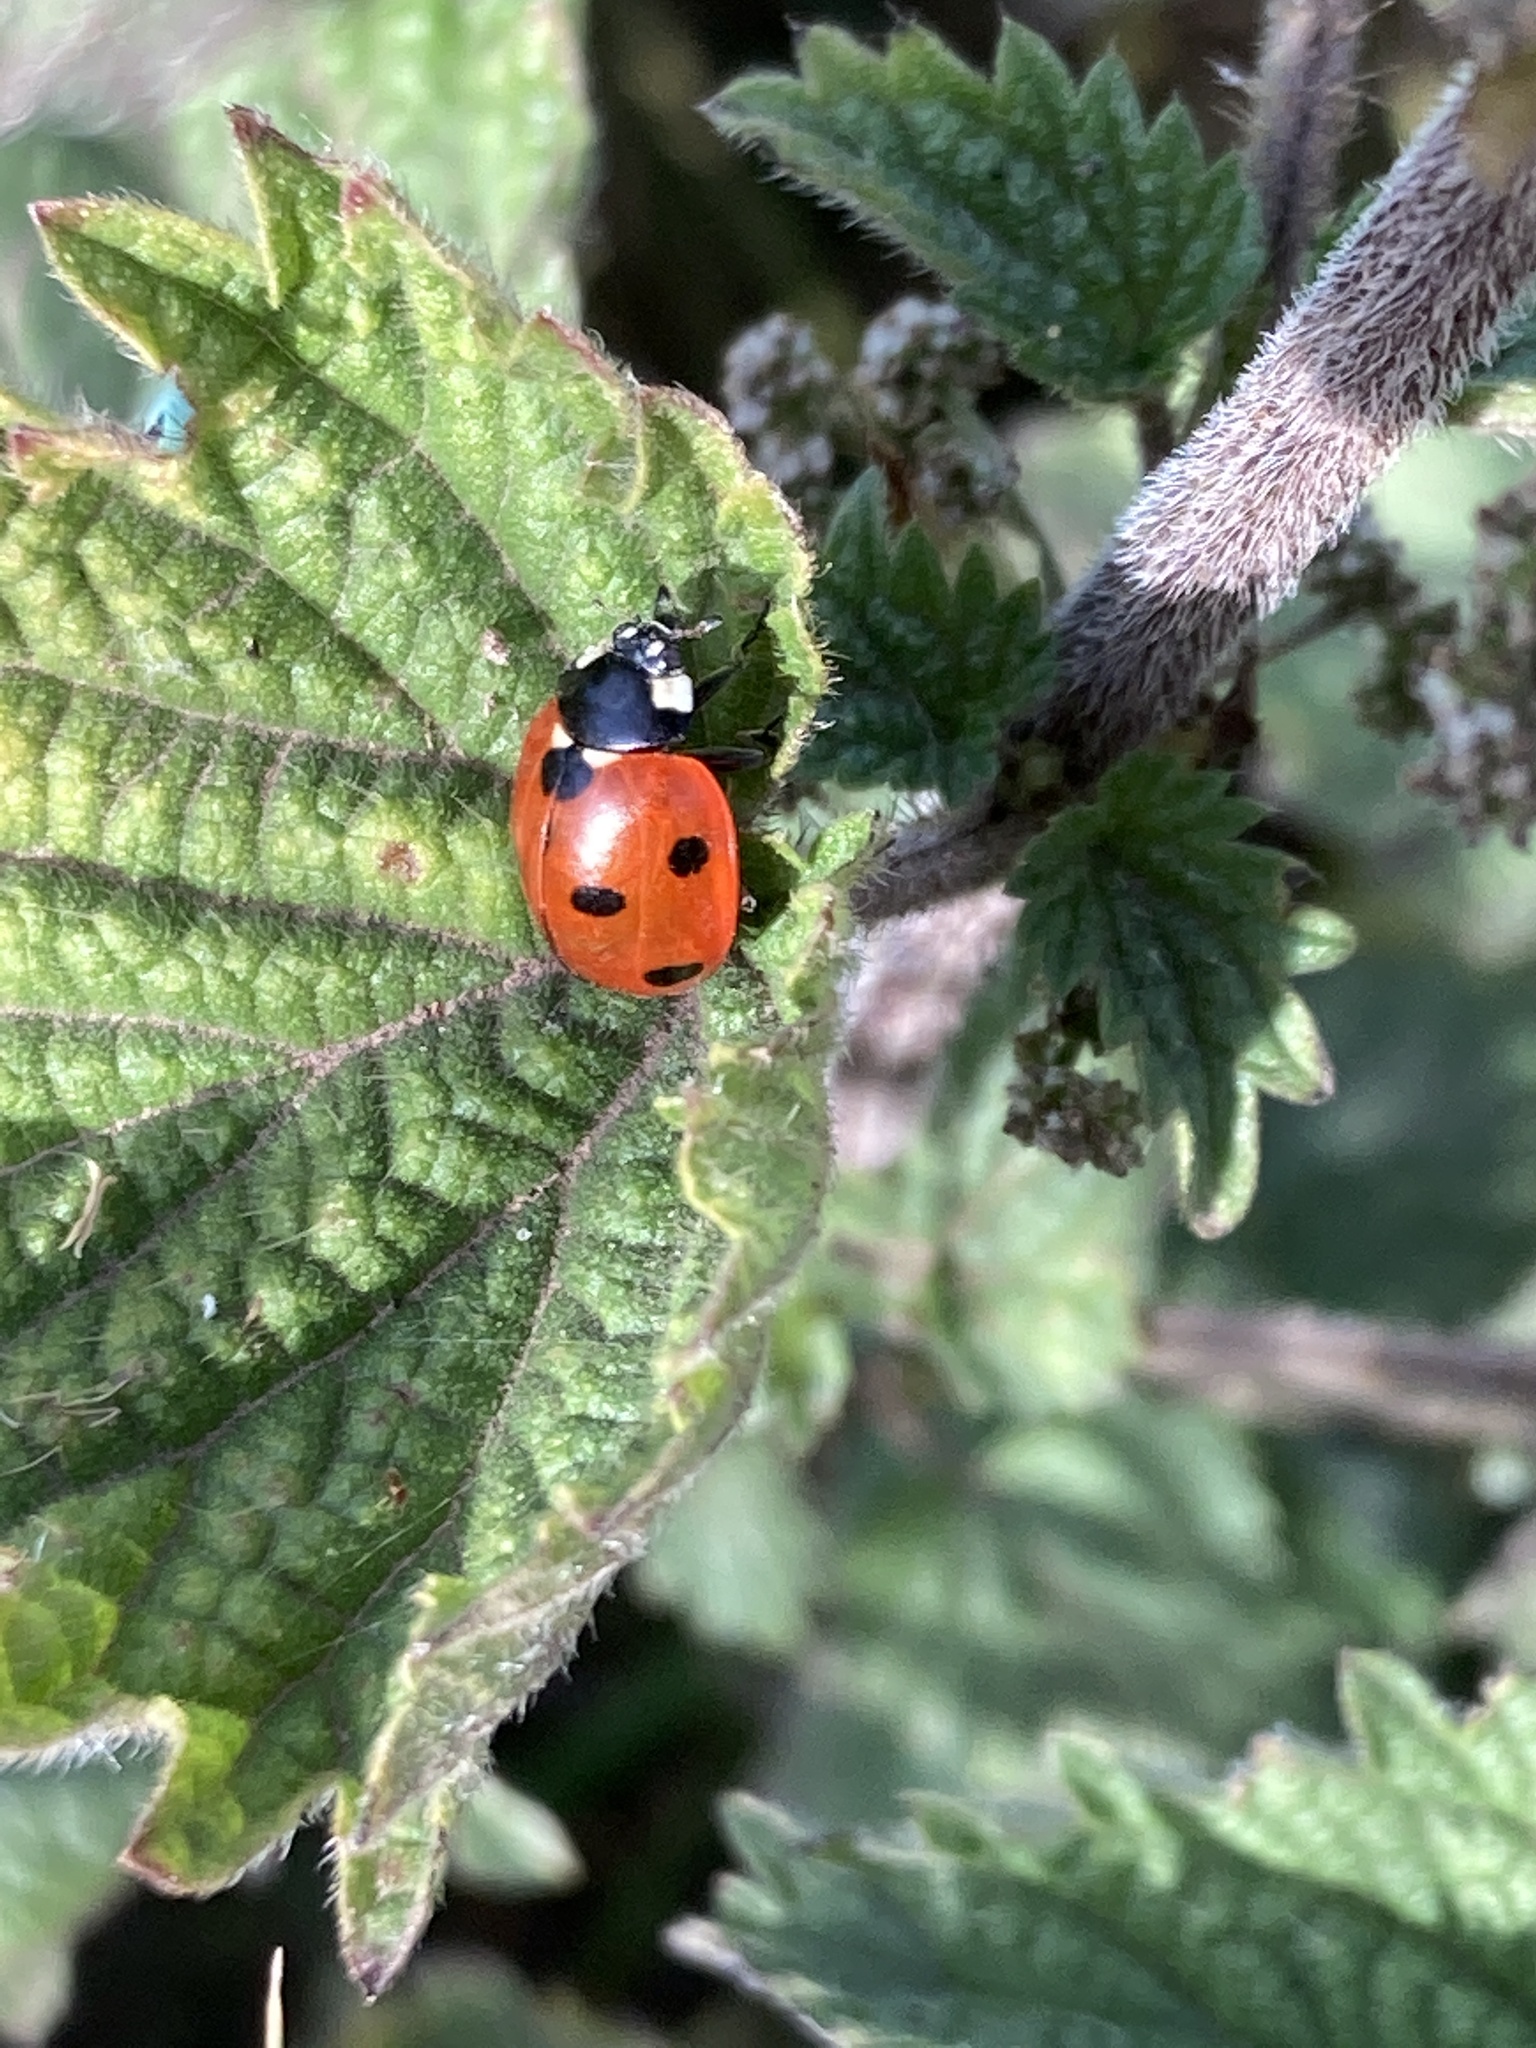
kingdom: Animalia
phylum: Arthropoda
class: Insecta
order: Coleoptera
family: Coccinellidae
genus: Coccinella
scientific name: Coccinella septempunctata
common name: Sevenspotted lady beetle
